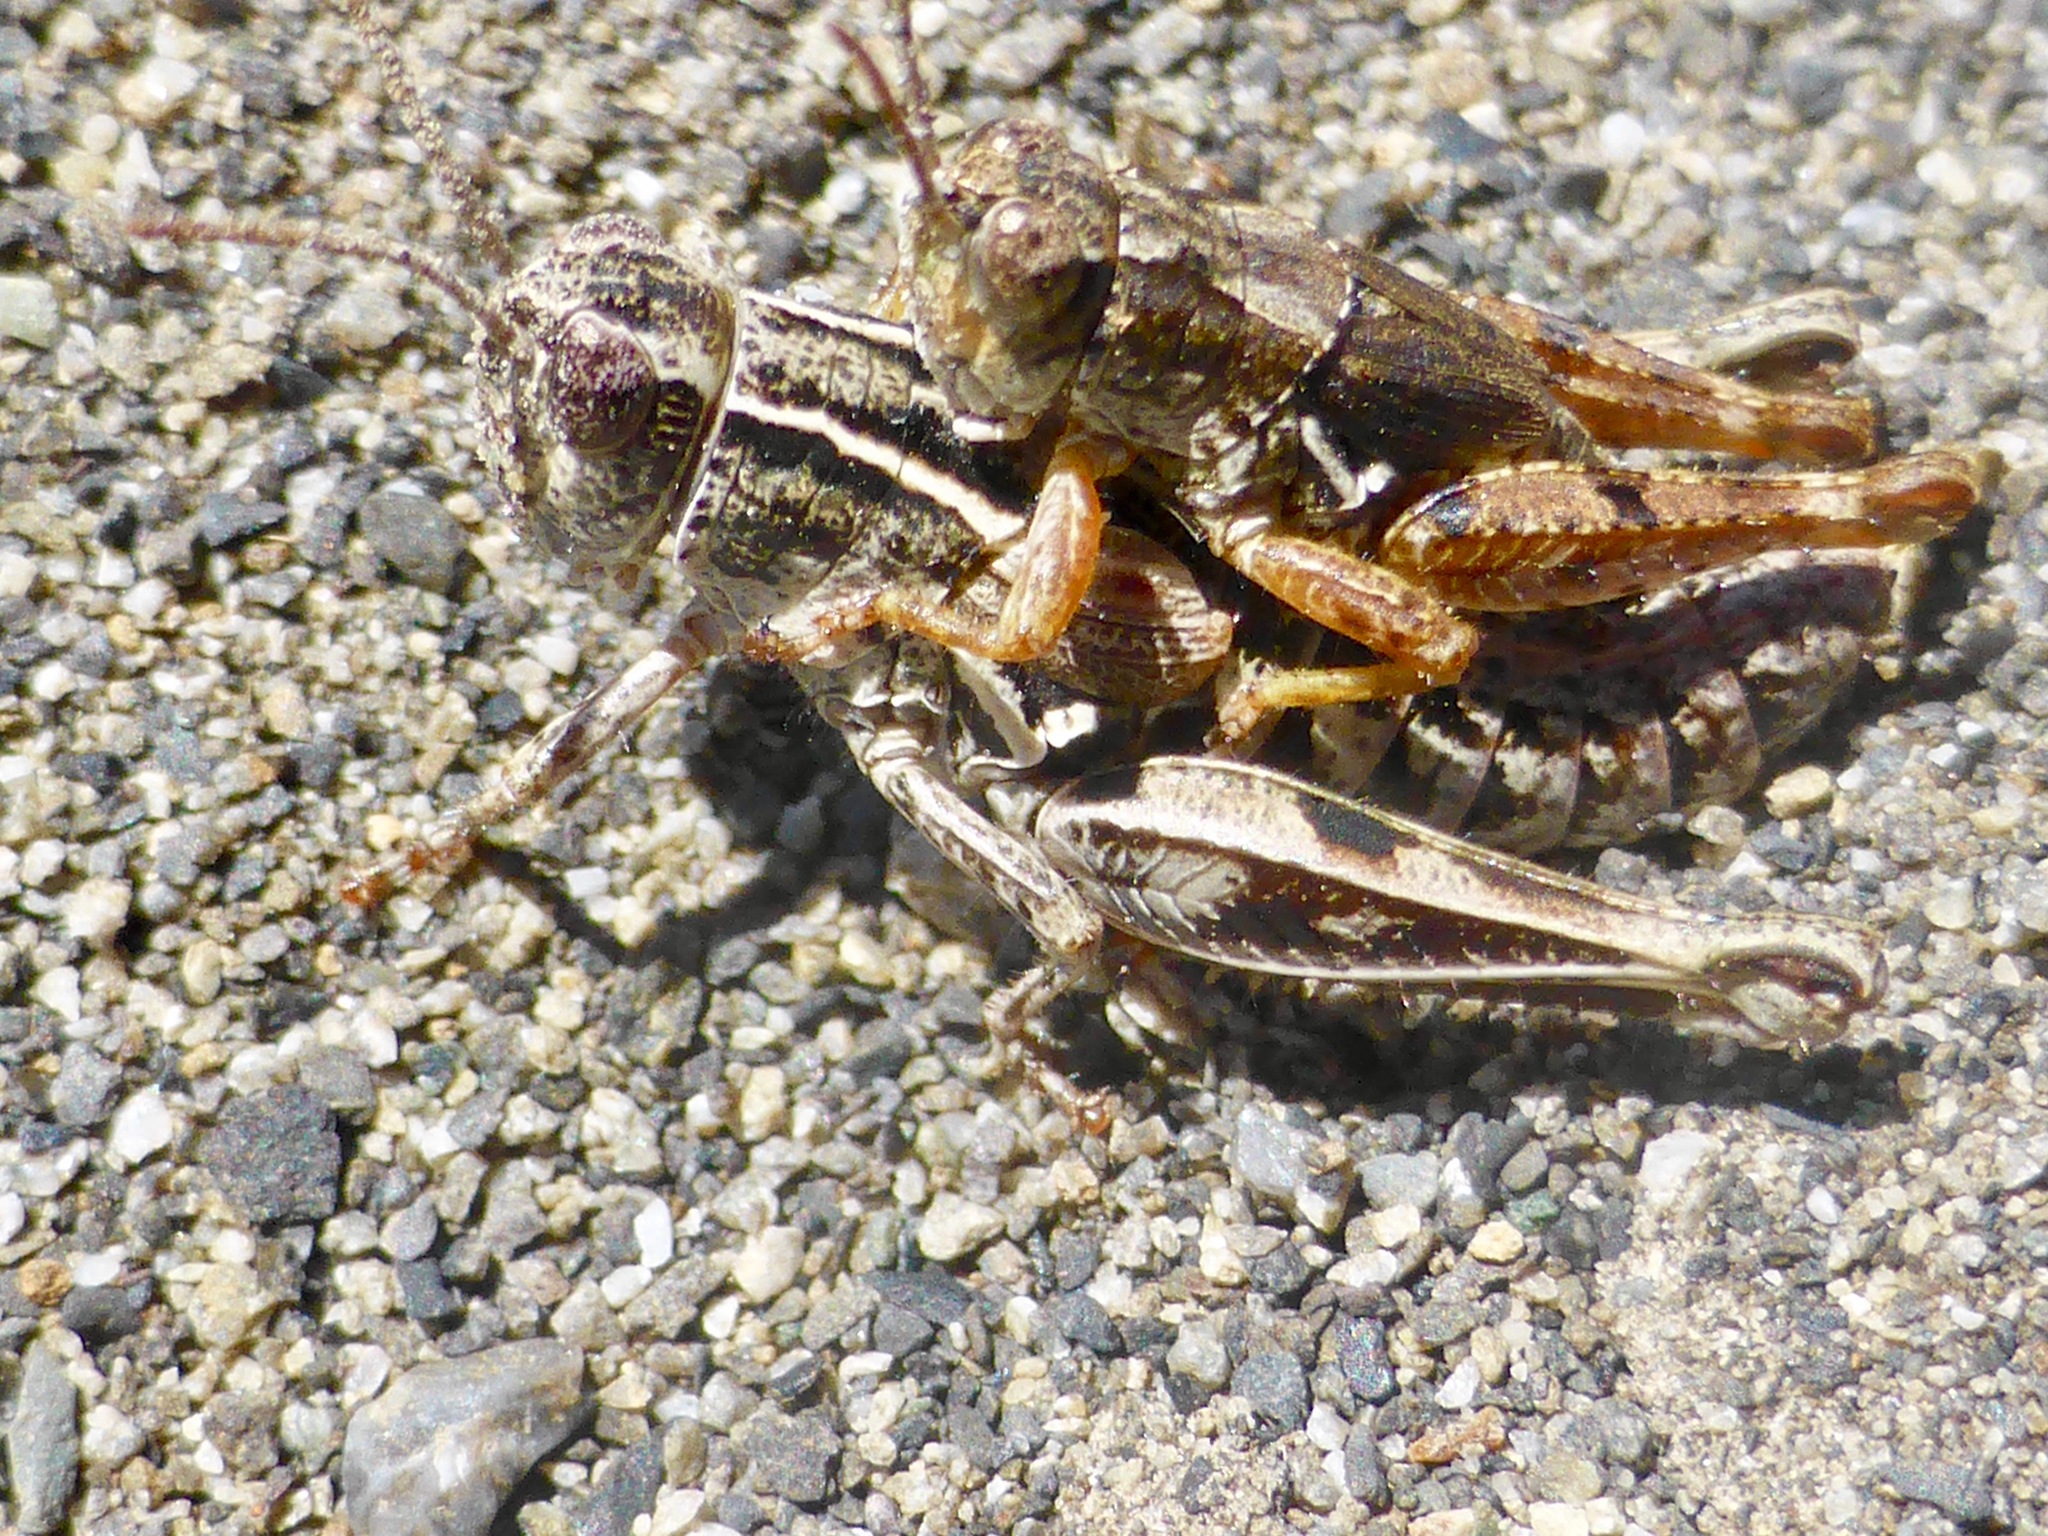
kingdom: Animalia
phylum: Arthropoda
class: Insecta
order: Orthoptera
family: Acrididae
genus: Phaulacridium
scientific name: Phaulacridium marginale
